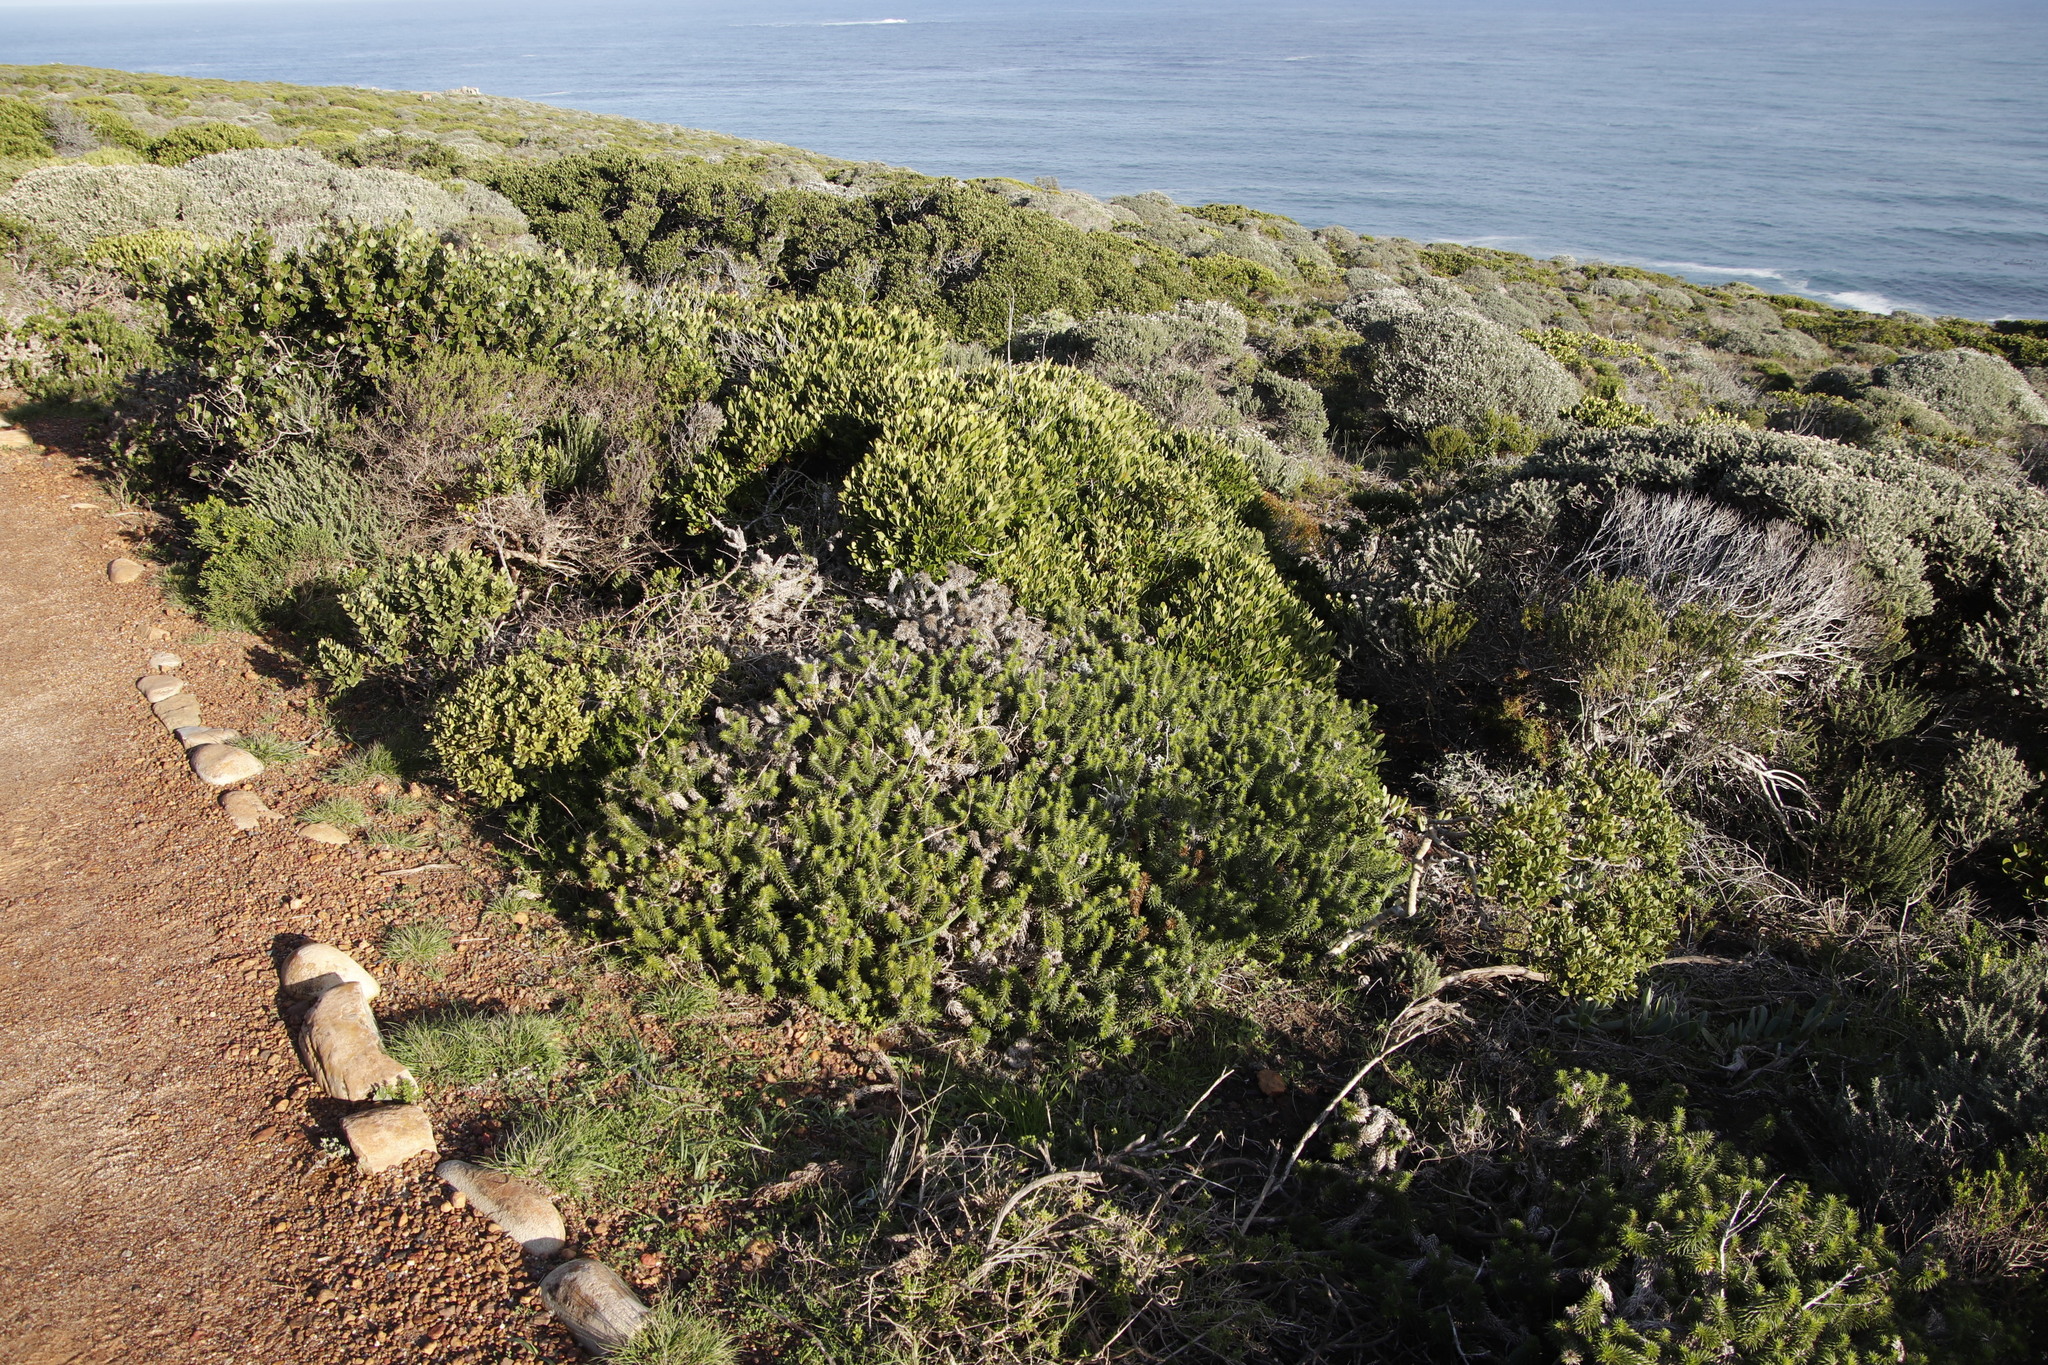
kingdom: Plantae
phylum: Tracheophyta
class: Magnoliopsida
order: Asterales
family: Asteraceae
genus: Cullumia
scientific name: Cullumia squarrosa
